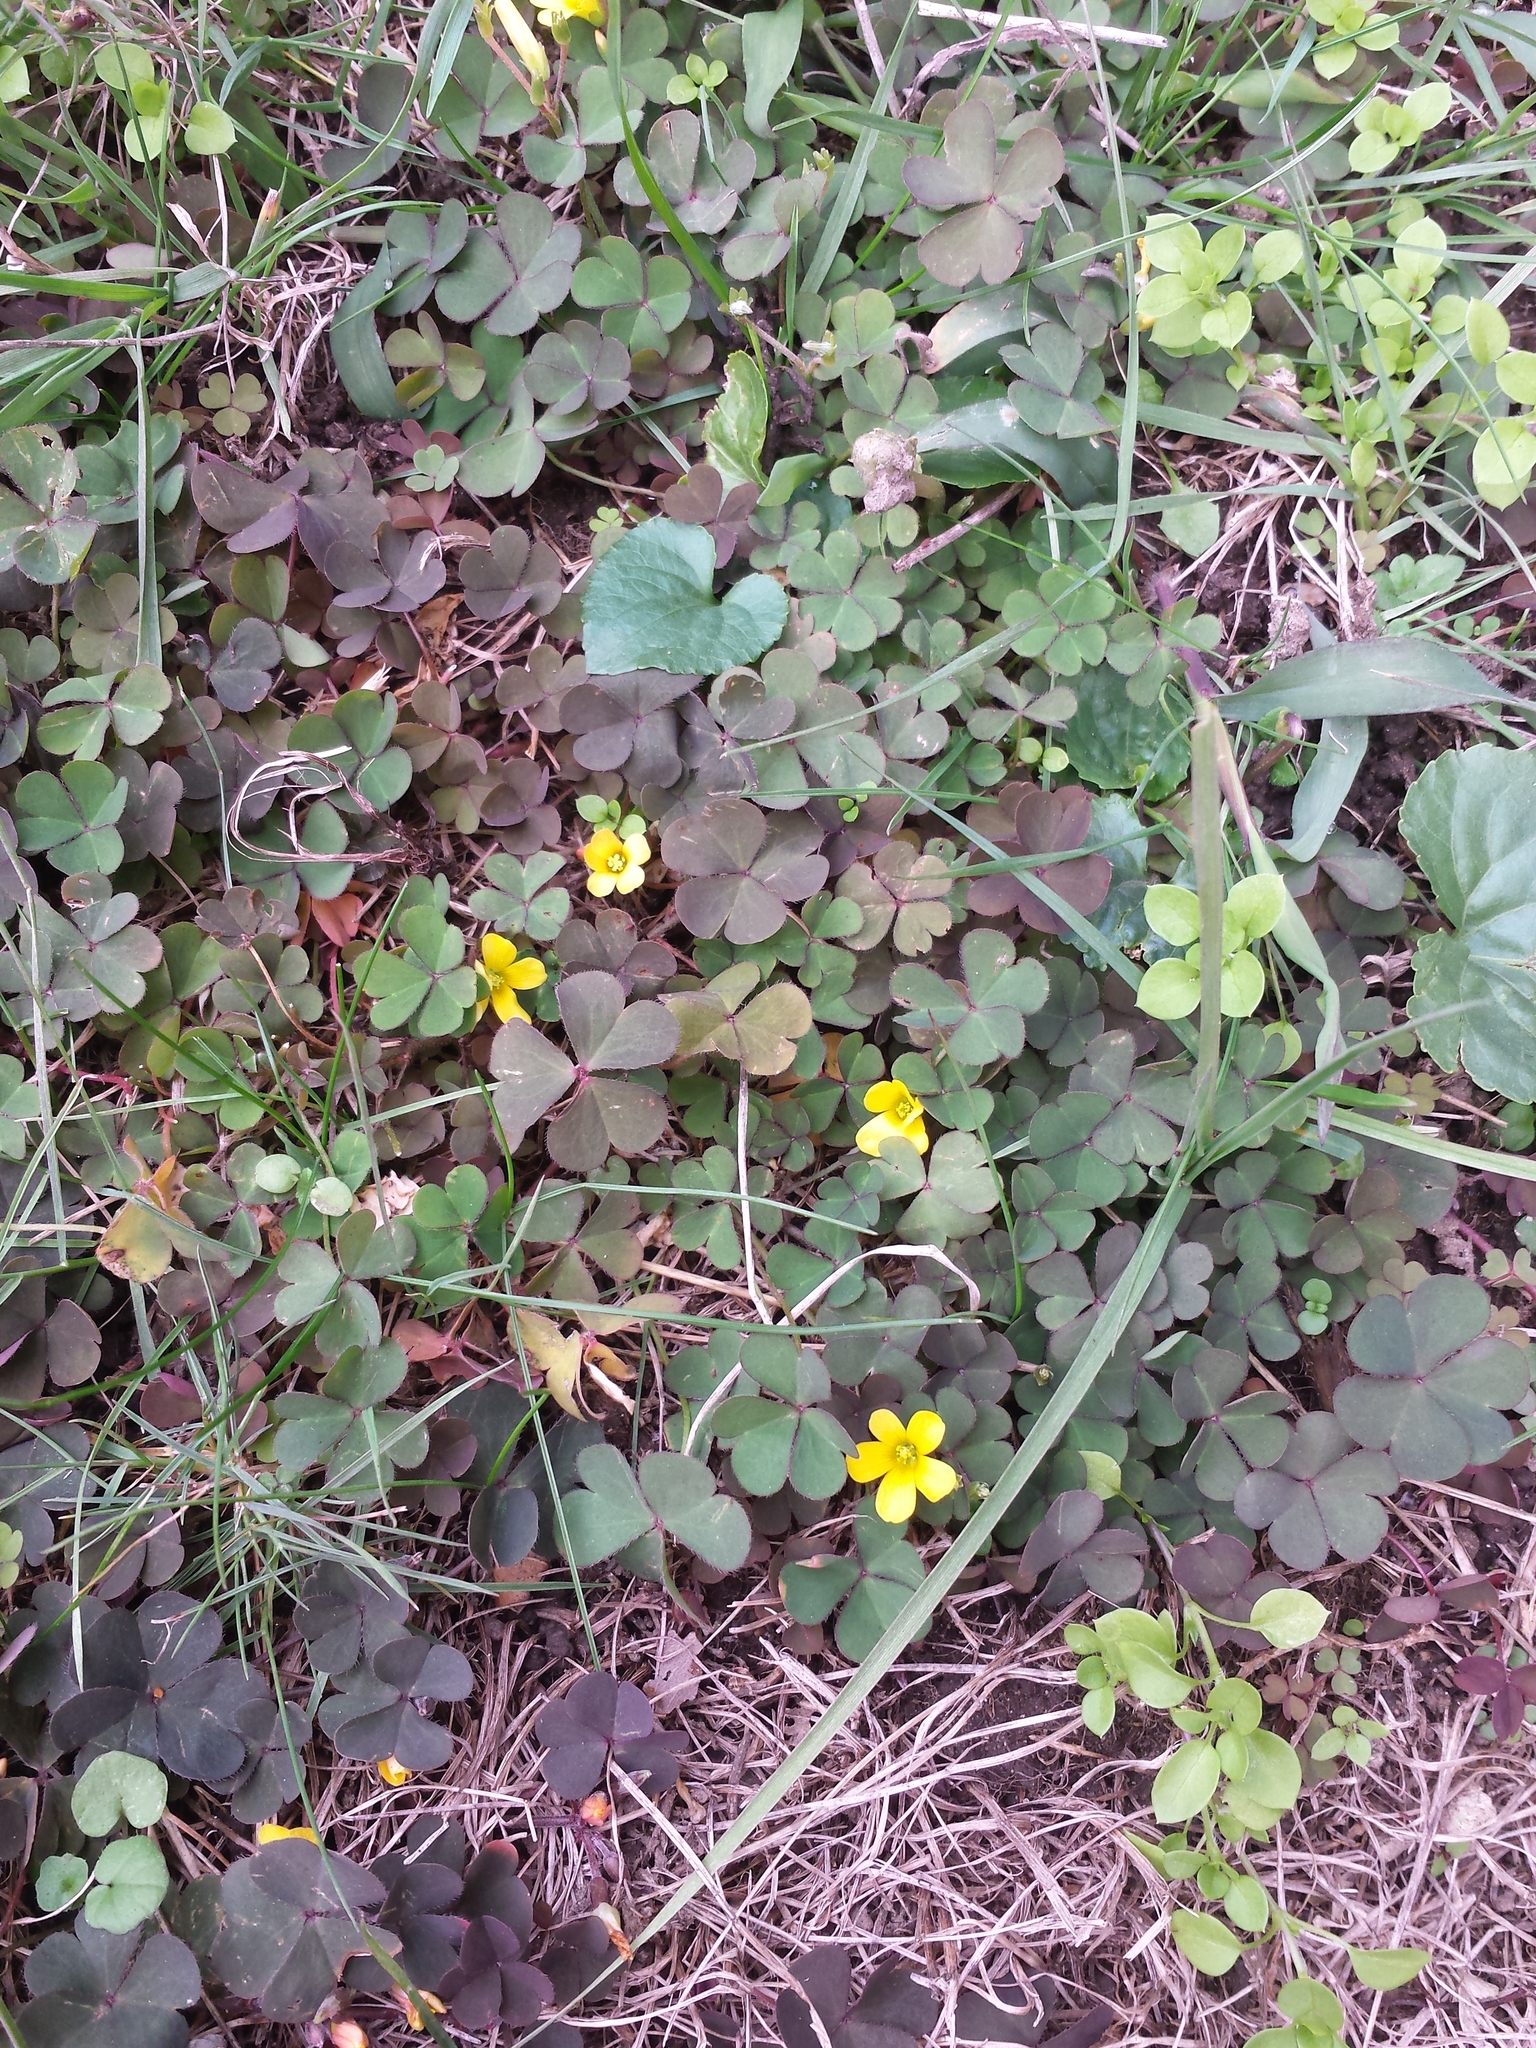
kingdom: Plantae
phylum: Tracheophyta
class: Magnoliopsida
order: Oxalidales
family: Oxalidaceae
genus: Oxalis
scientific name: Oxalis corniculata
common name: Procumbent yellow-sorrel
